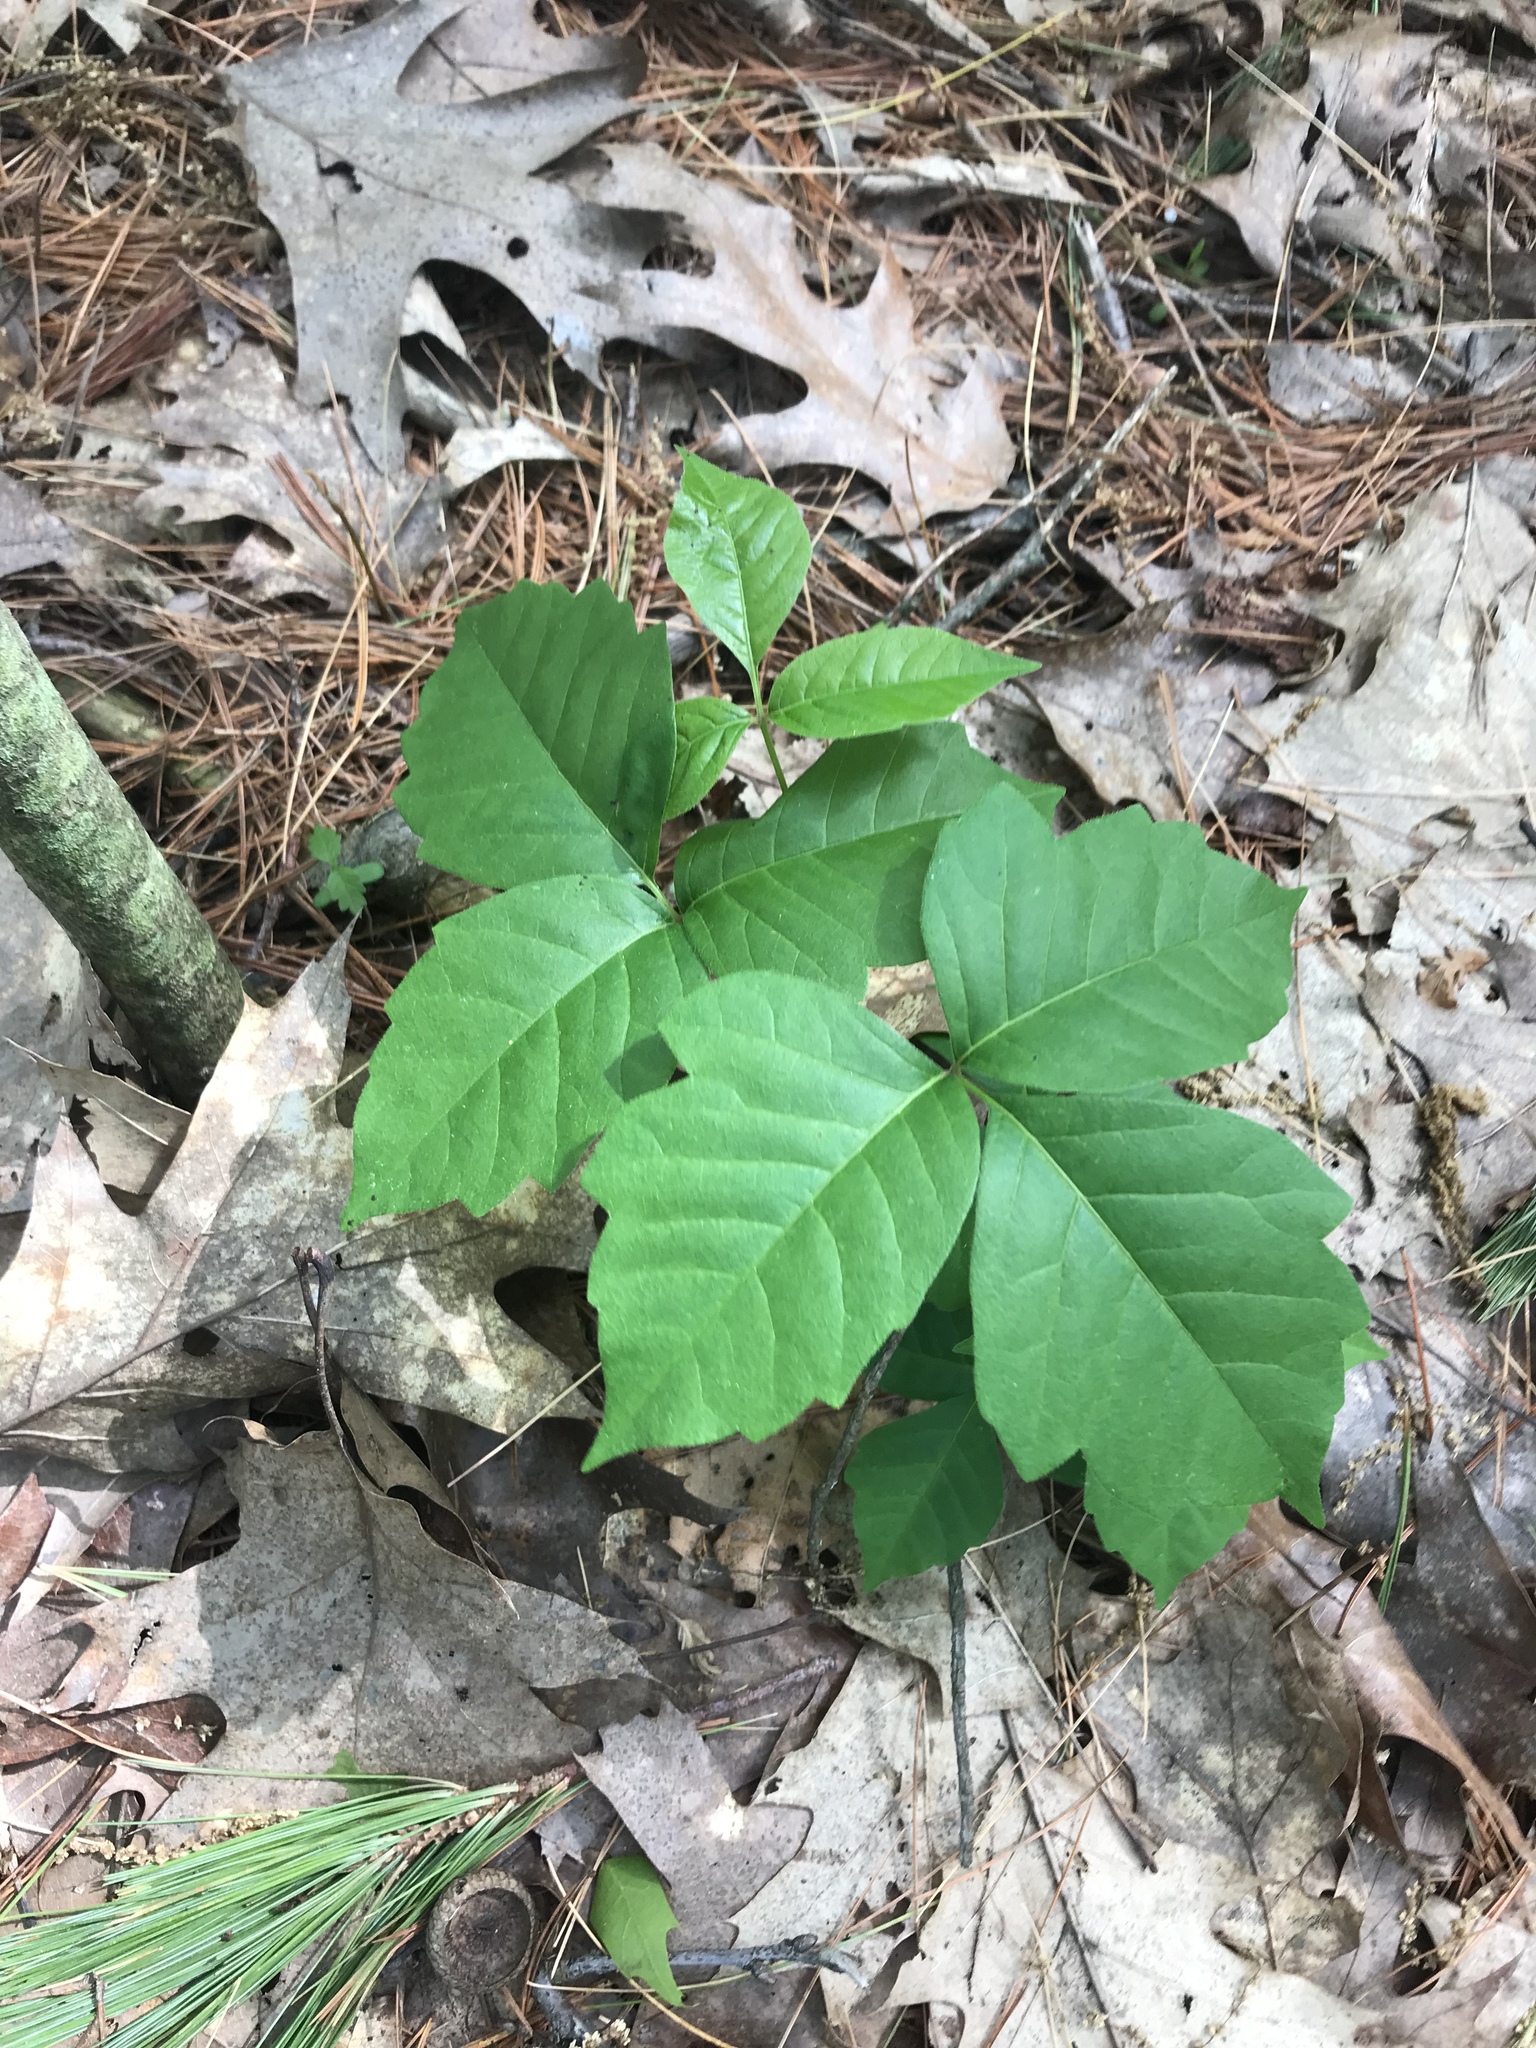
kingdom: Plantae
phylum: Tracheophyta
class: Magnoliopsida
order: Sapindales
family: Anacardiaceae
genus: Toxicodendron
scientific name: Toxicodendron rydbergii
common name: Rydberg's poison-ivy
